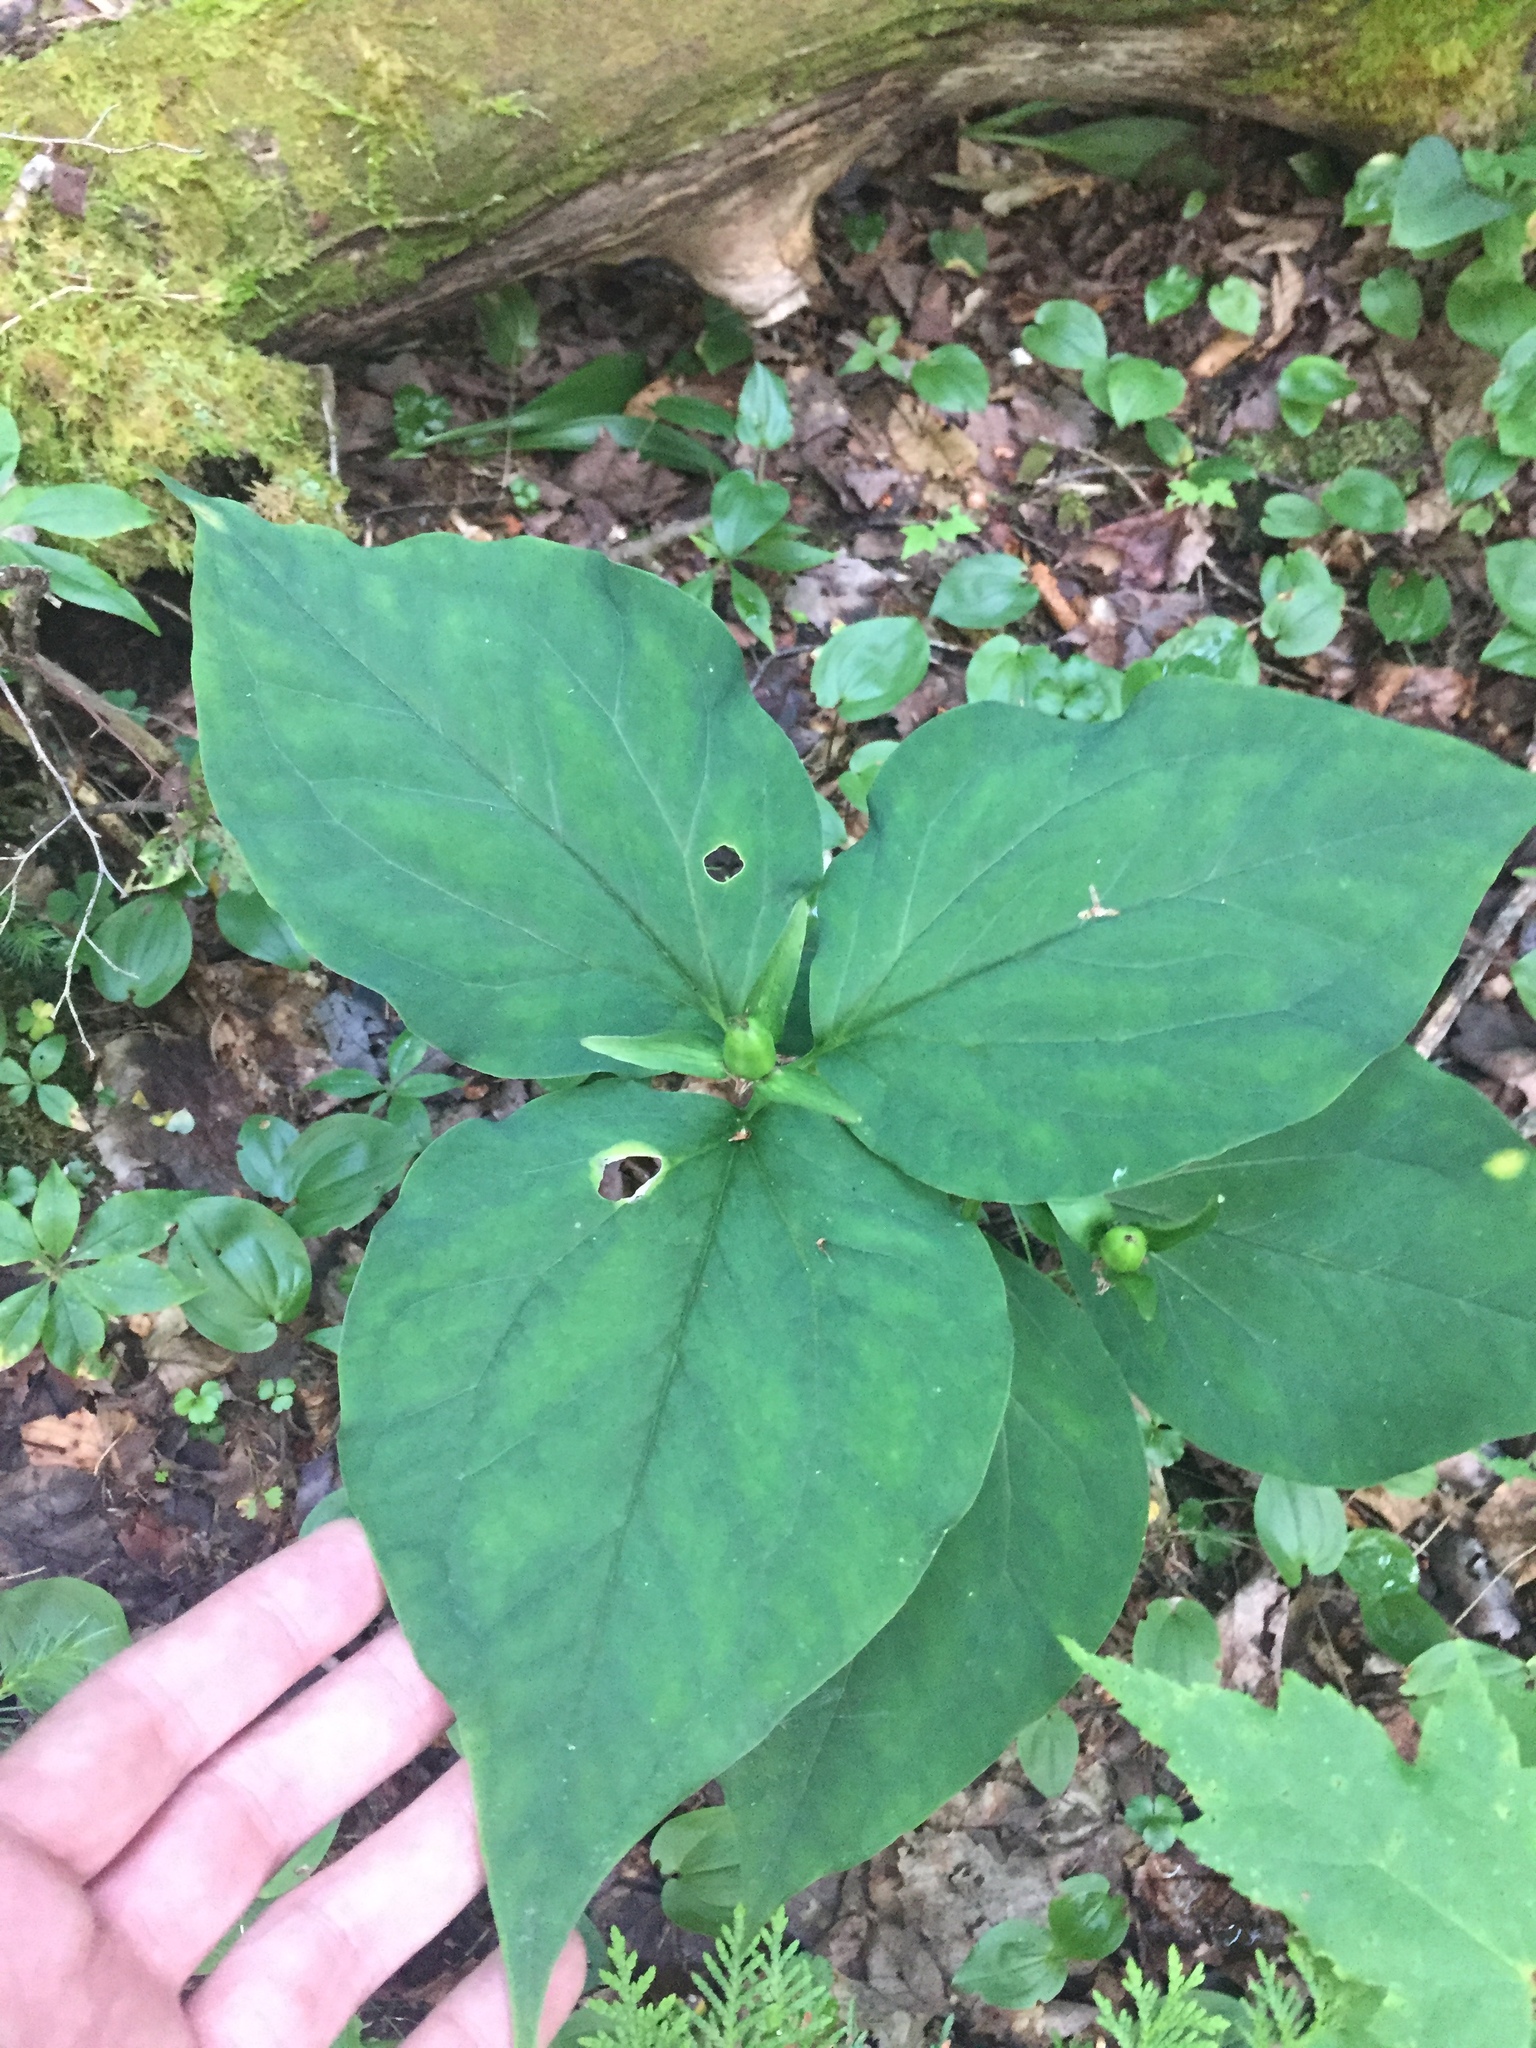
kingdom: Plantae
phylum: Tracheophyta
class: Liliopsida
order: Liliales
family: Melanthiaceae
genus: Trillium
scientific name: Trillium undulatum
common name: Paint trillium
